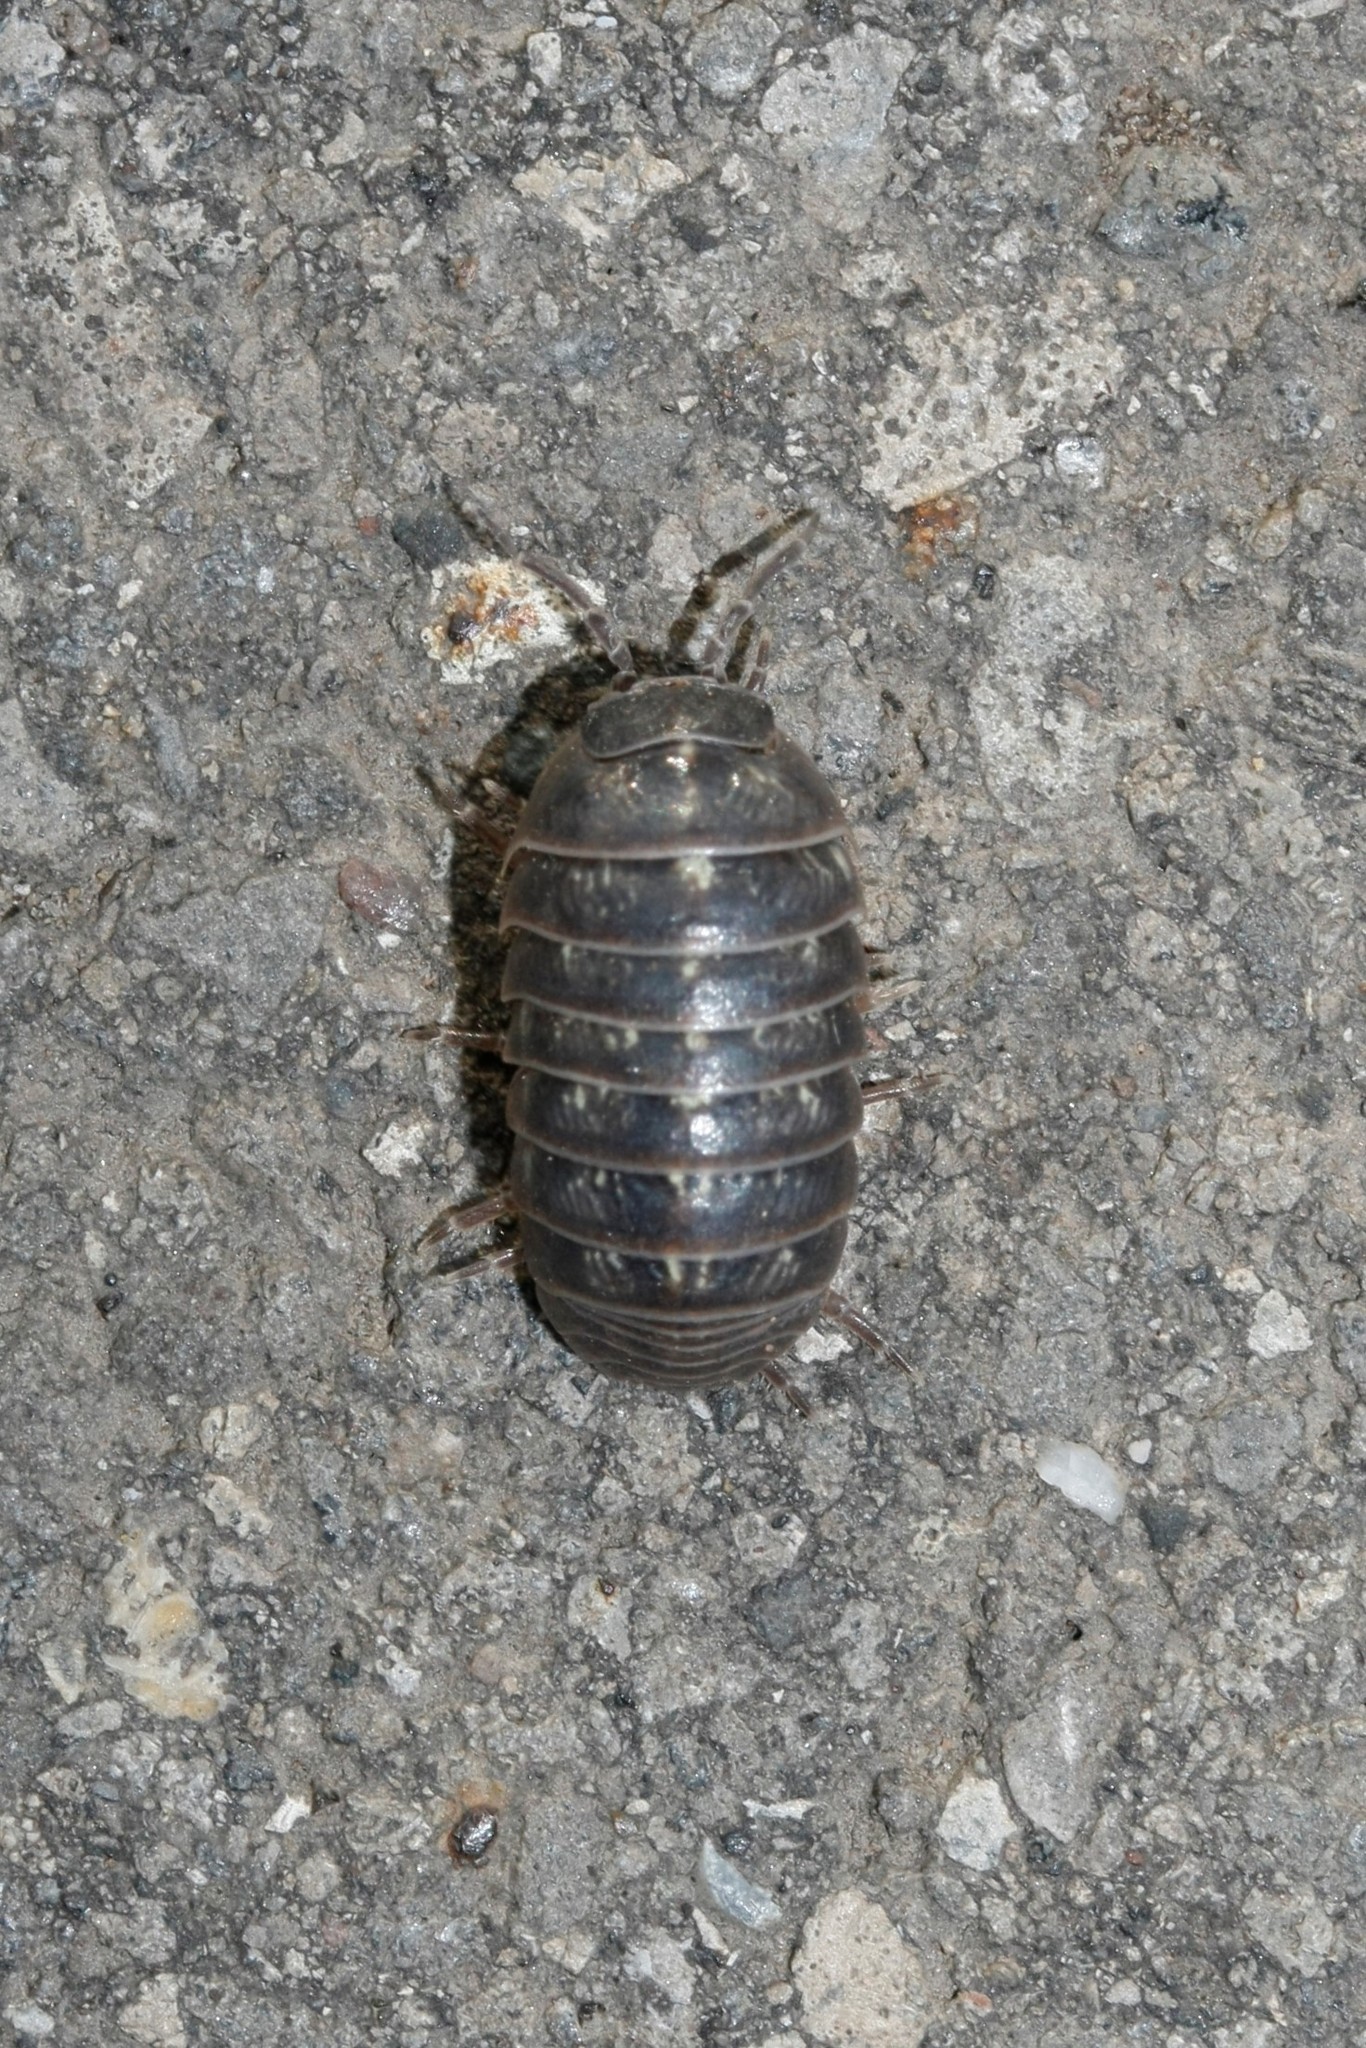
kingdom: Animalia
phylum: Arthropoda
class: Malacostraca
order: Isopoda
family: Armadillidiidae
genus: Armadillidium
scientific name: Armadillidium vulgare
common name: Common pill woodlouse
